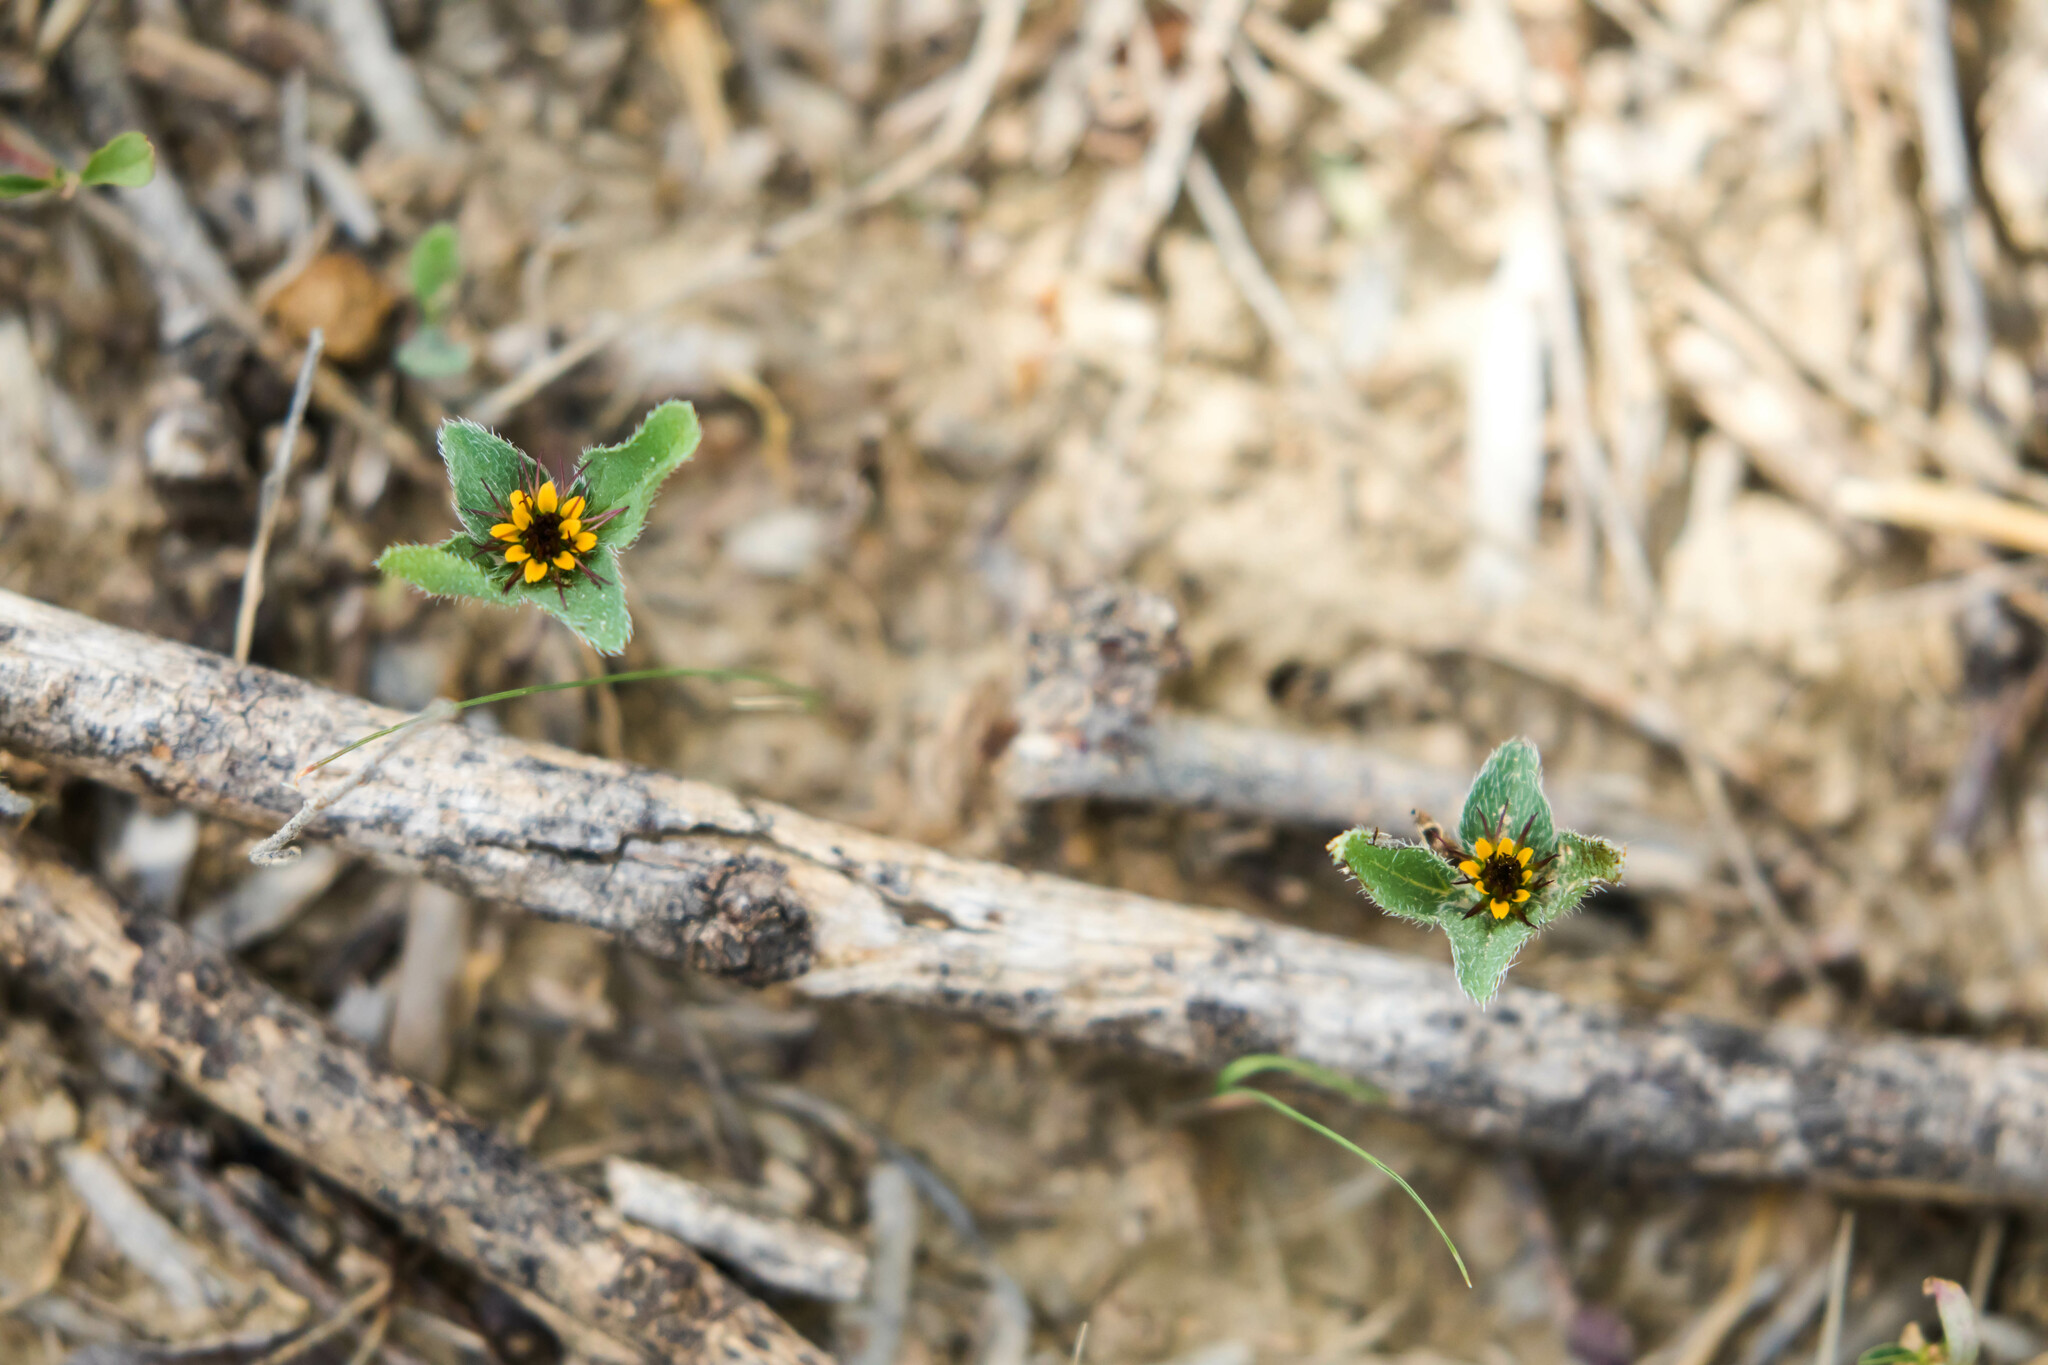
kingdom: Plantae
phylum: Tracheophyta
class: Magnoliopsida
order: Asterales
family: Asteraceae
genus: Sanvitalia
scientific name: Sanvitalia ocymoides
